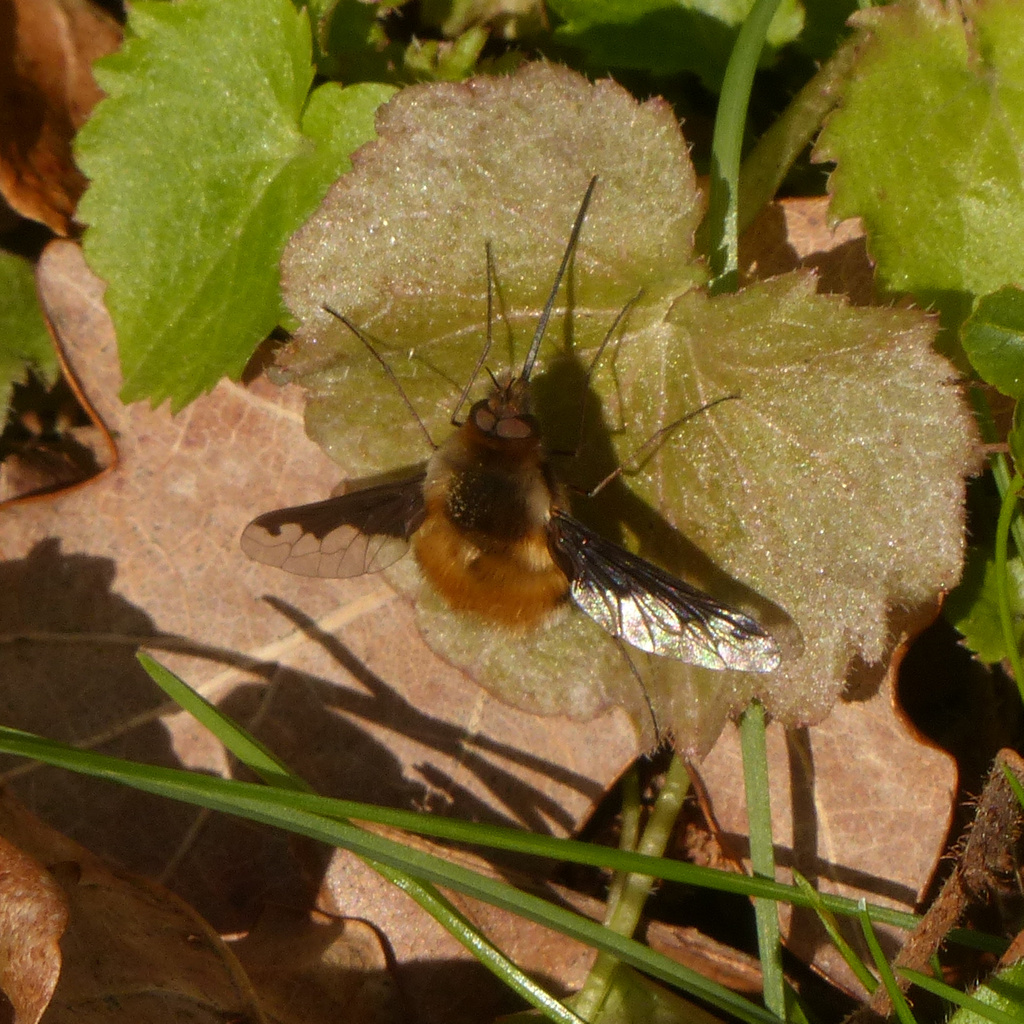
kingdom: Animalia
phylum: Arthropoda
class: Insecta
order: Diptera
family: Bombyliidae
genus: Bombylius
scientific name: Bombylius major
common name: Bee fly
